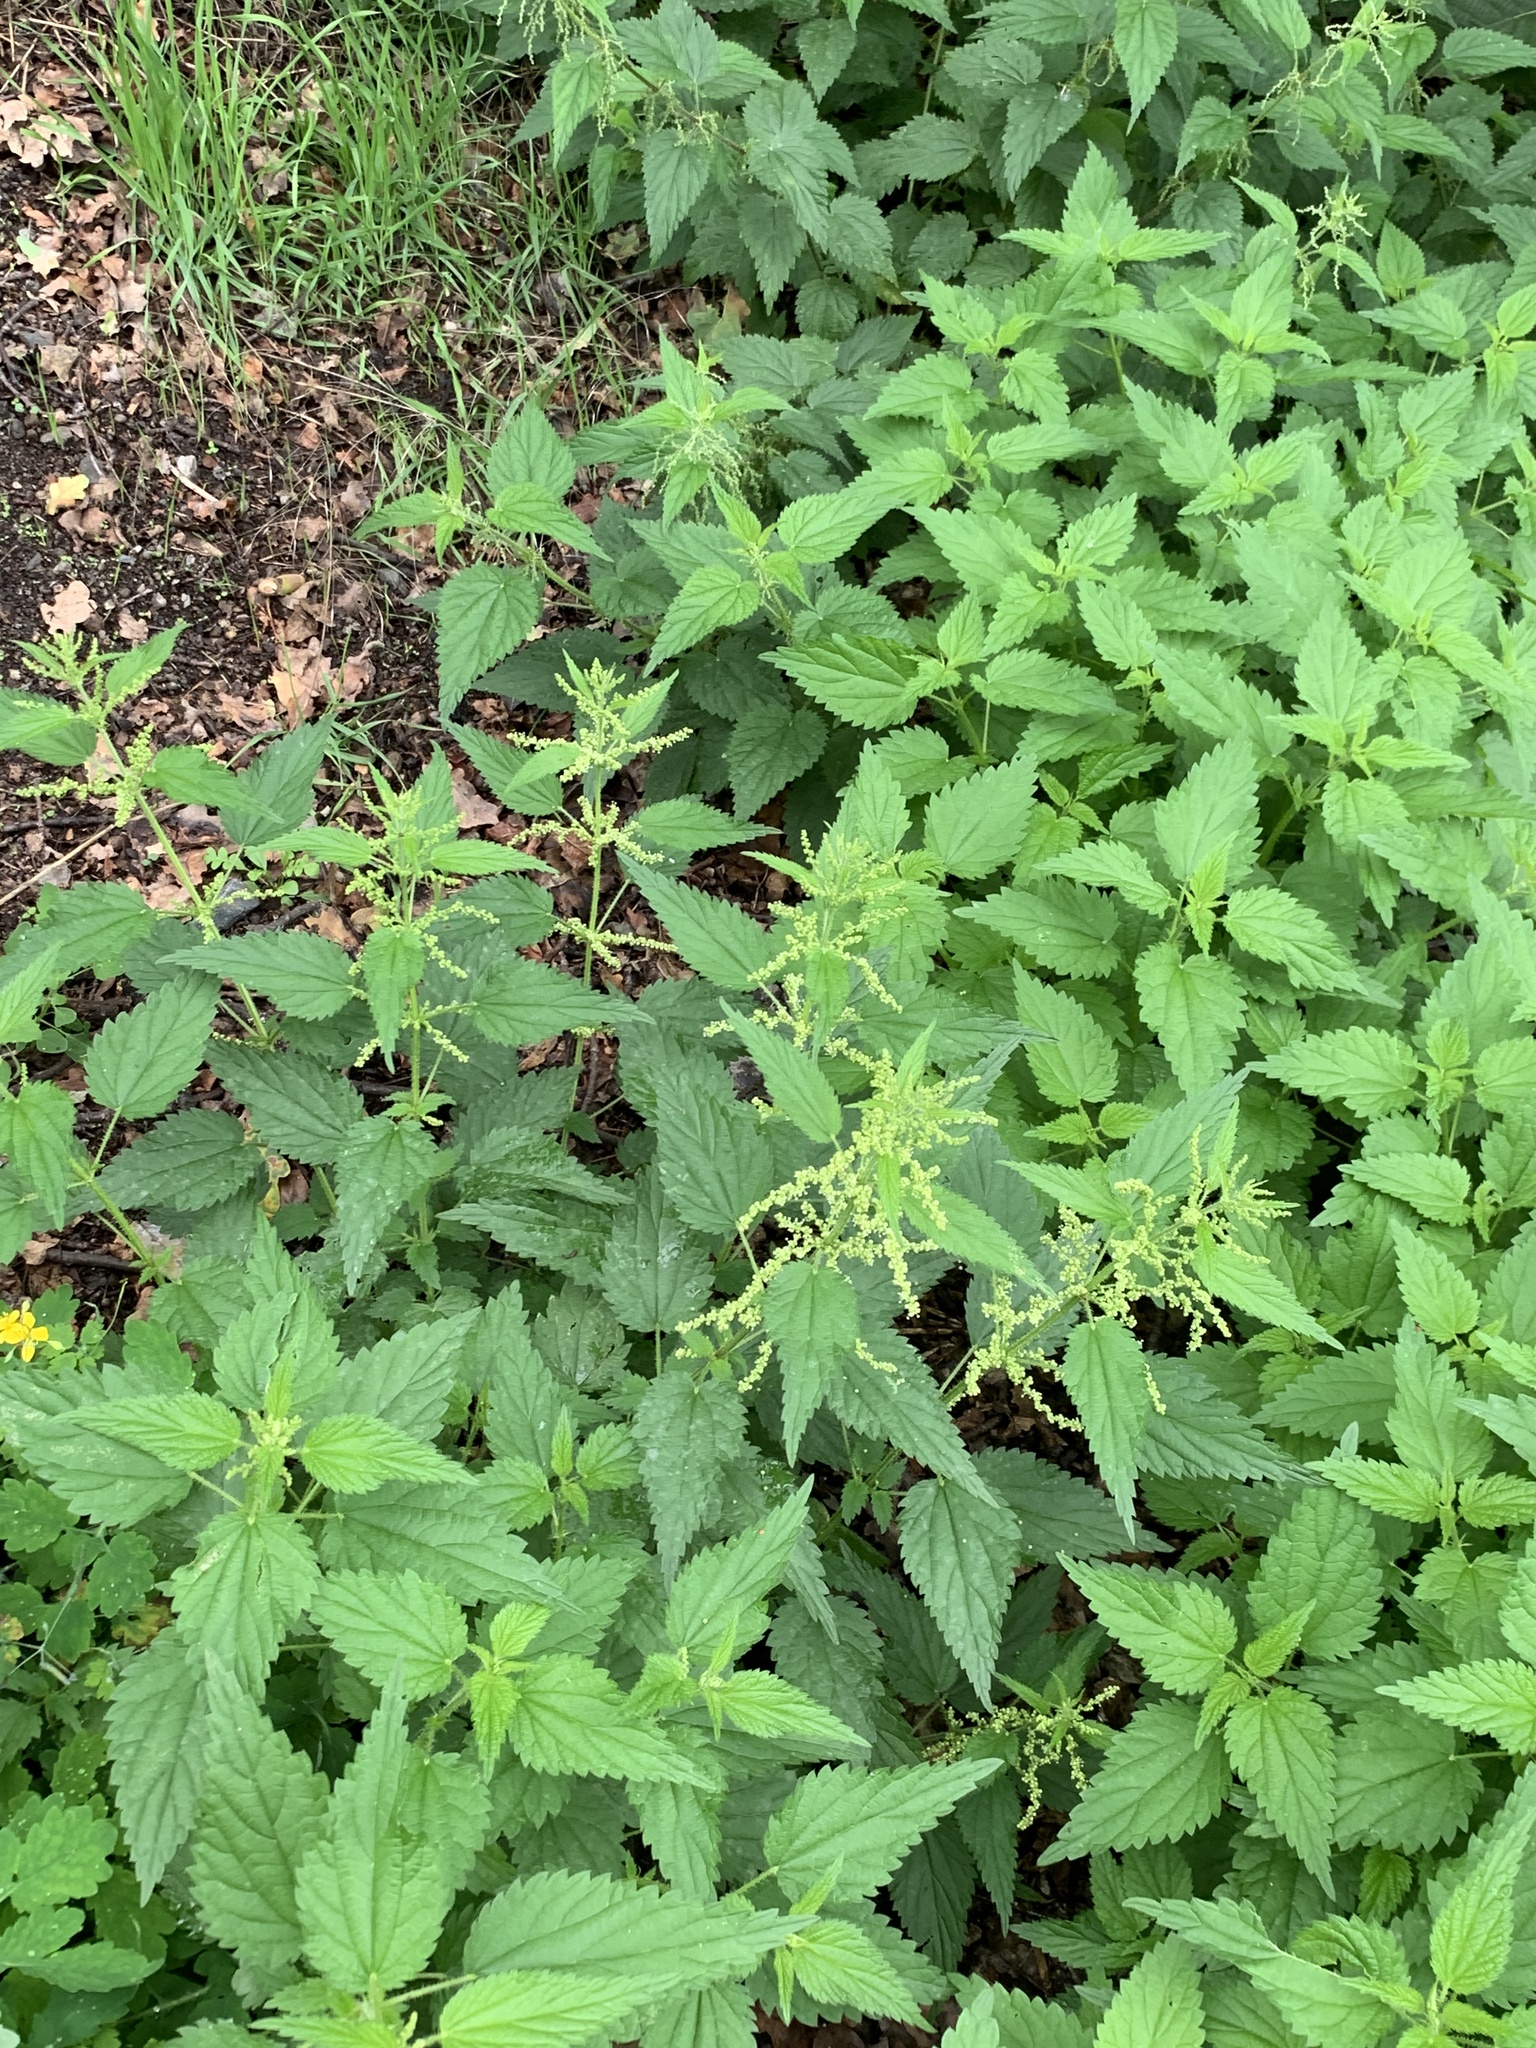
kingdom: Plantae
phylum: Tracheophyta
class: Magnoliopsida
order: Rosales
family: Urticaceae
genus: Urtica
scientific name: Urtica dioica
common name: Common nettle
